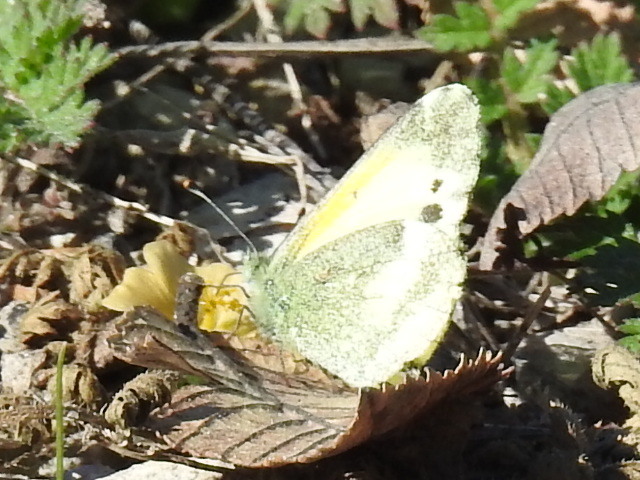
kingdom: Animalia
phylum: Arthropoda
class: Insecta
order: Lepidoptera
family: Pieridae
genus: Nathalis
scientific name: Nathalis iole
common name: Dainty sulphur
